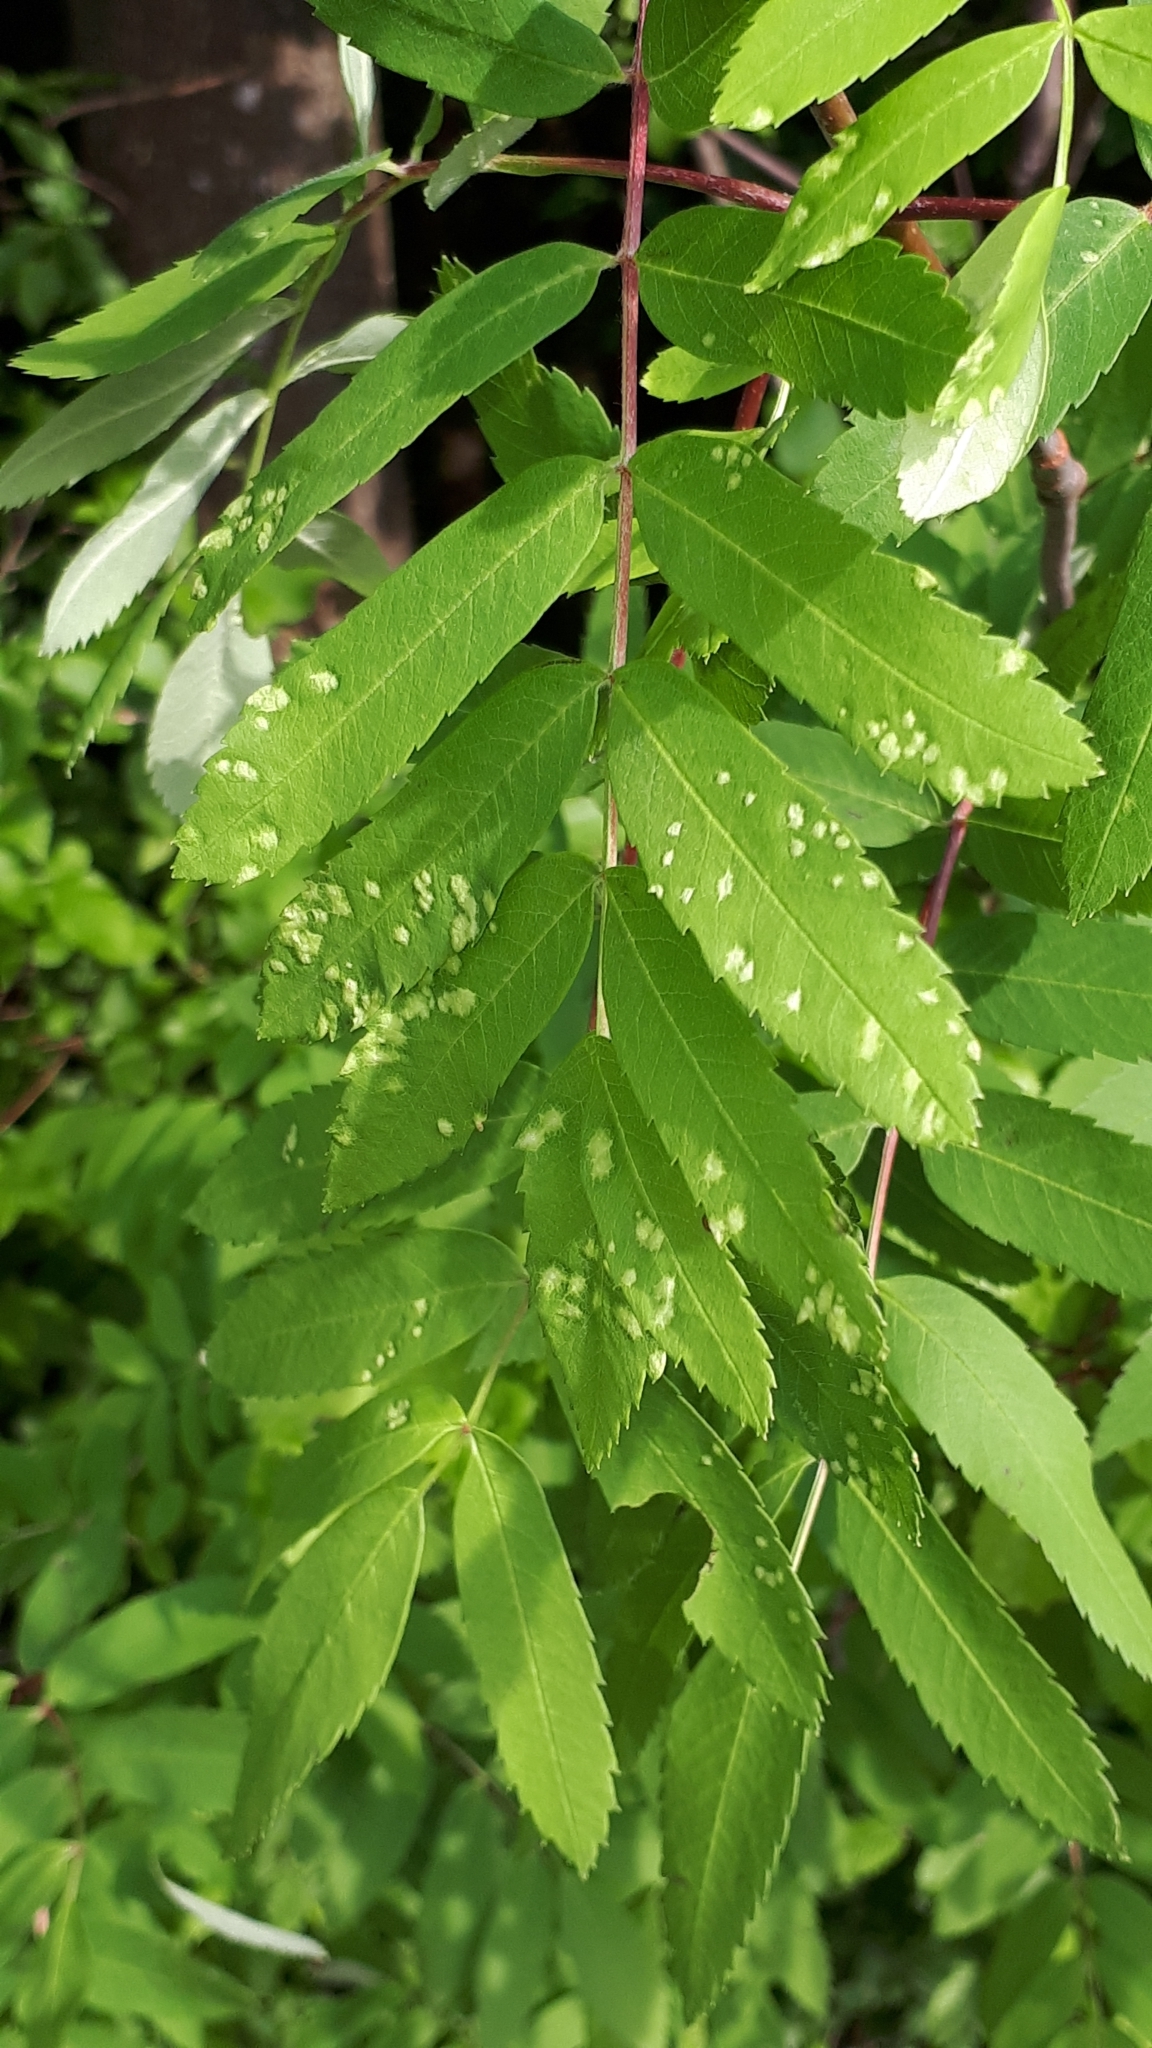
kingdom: Animalia
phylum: Arthropoda
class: Arachnida
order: Trombidiformes
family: Eriophyidae
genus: Eriophyes
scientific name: Eriophyes sorbi
